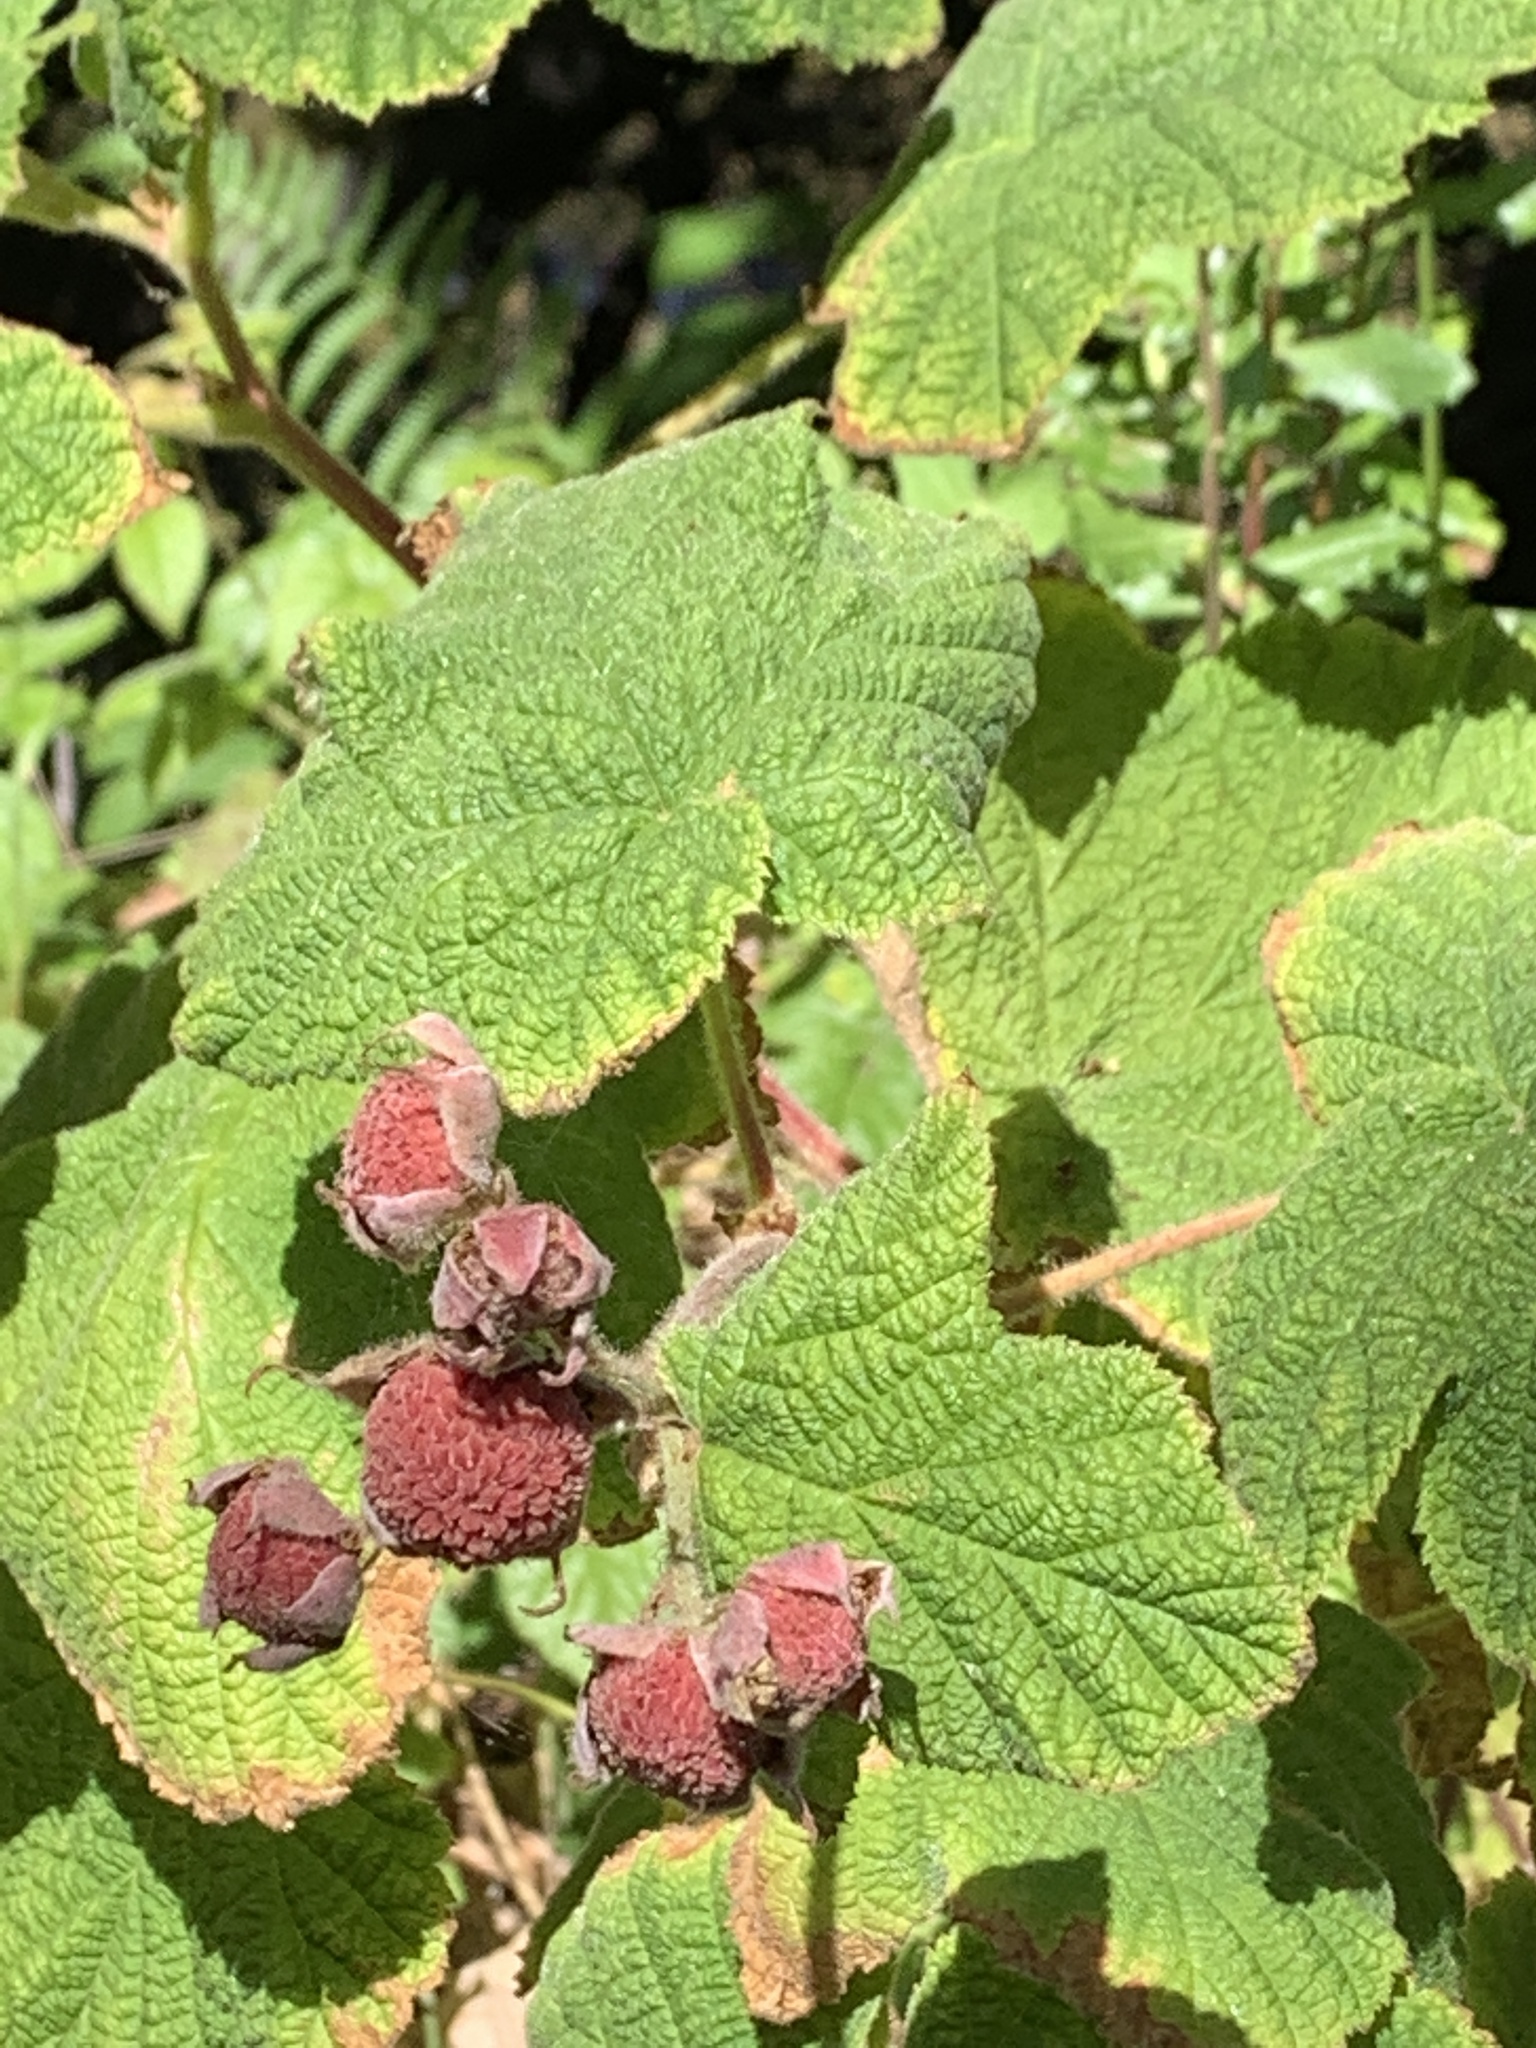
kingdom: Plantae
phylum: Tracheophyta
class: Magnoliopsida
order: Rosales
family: Rosaceae
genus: Rubus
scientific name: Rubus parviflorus
